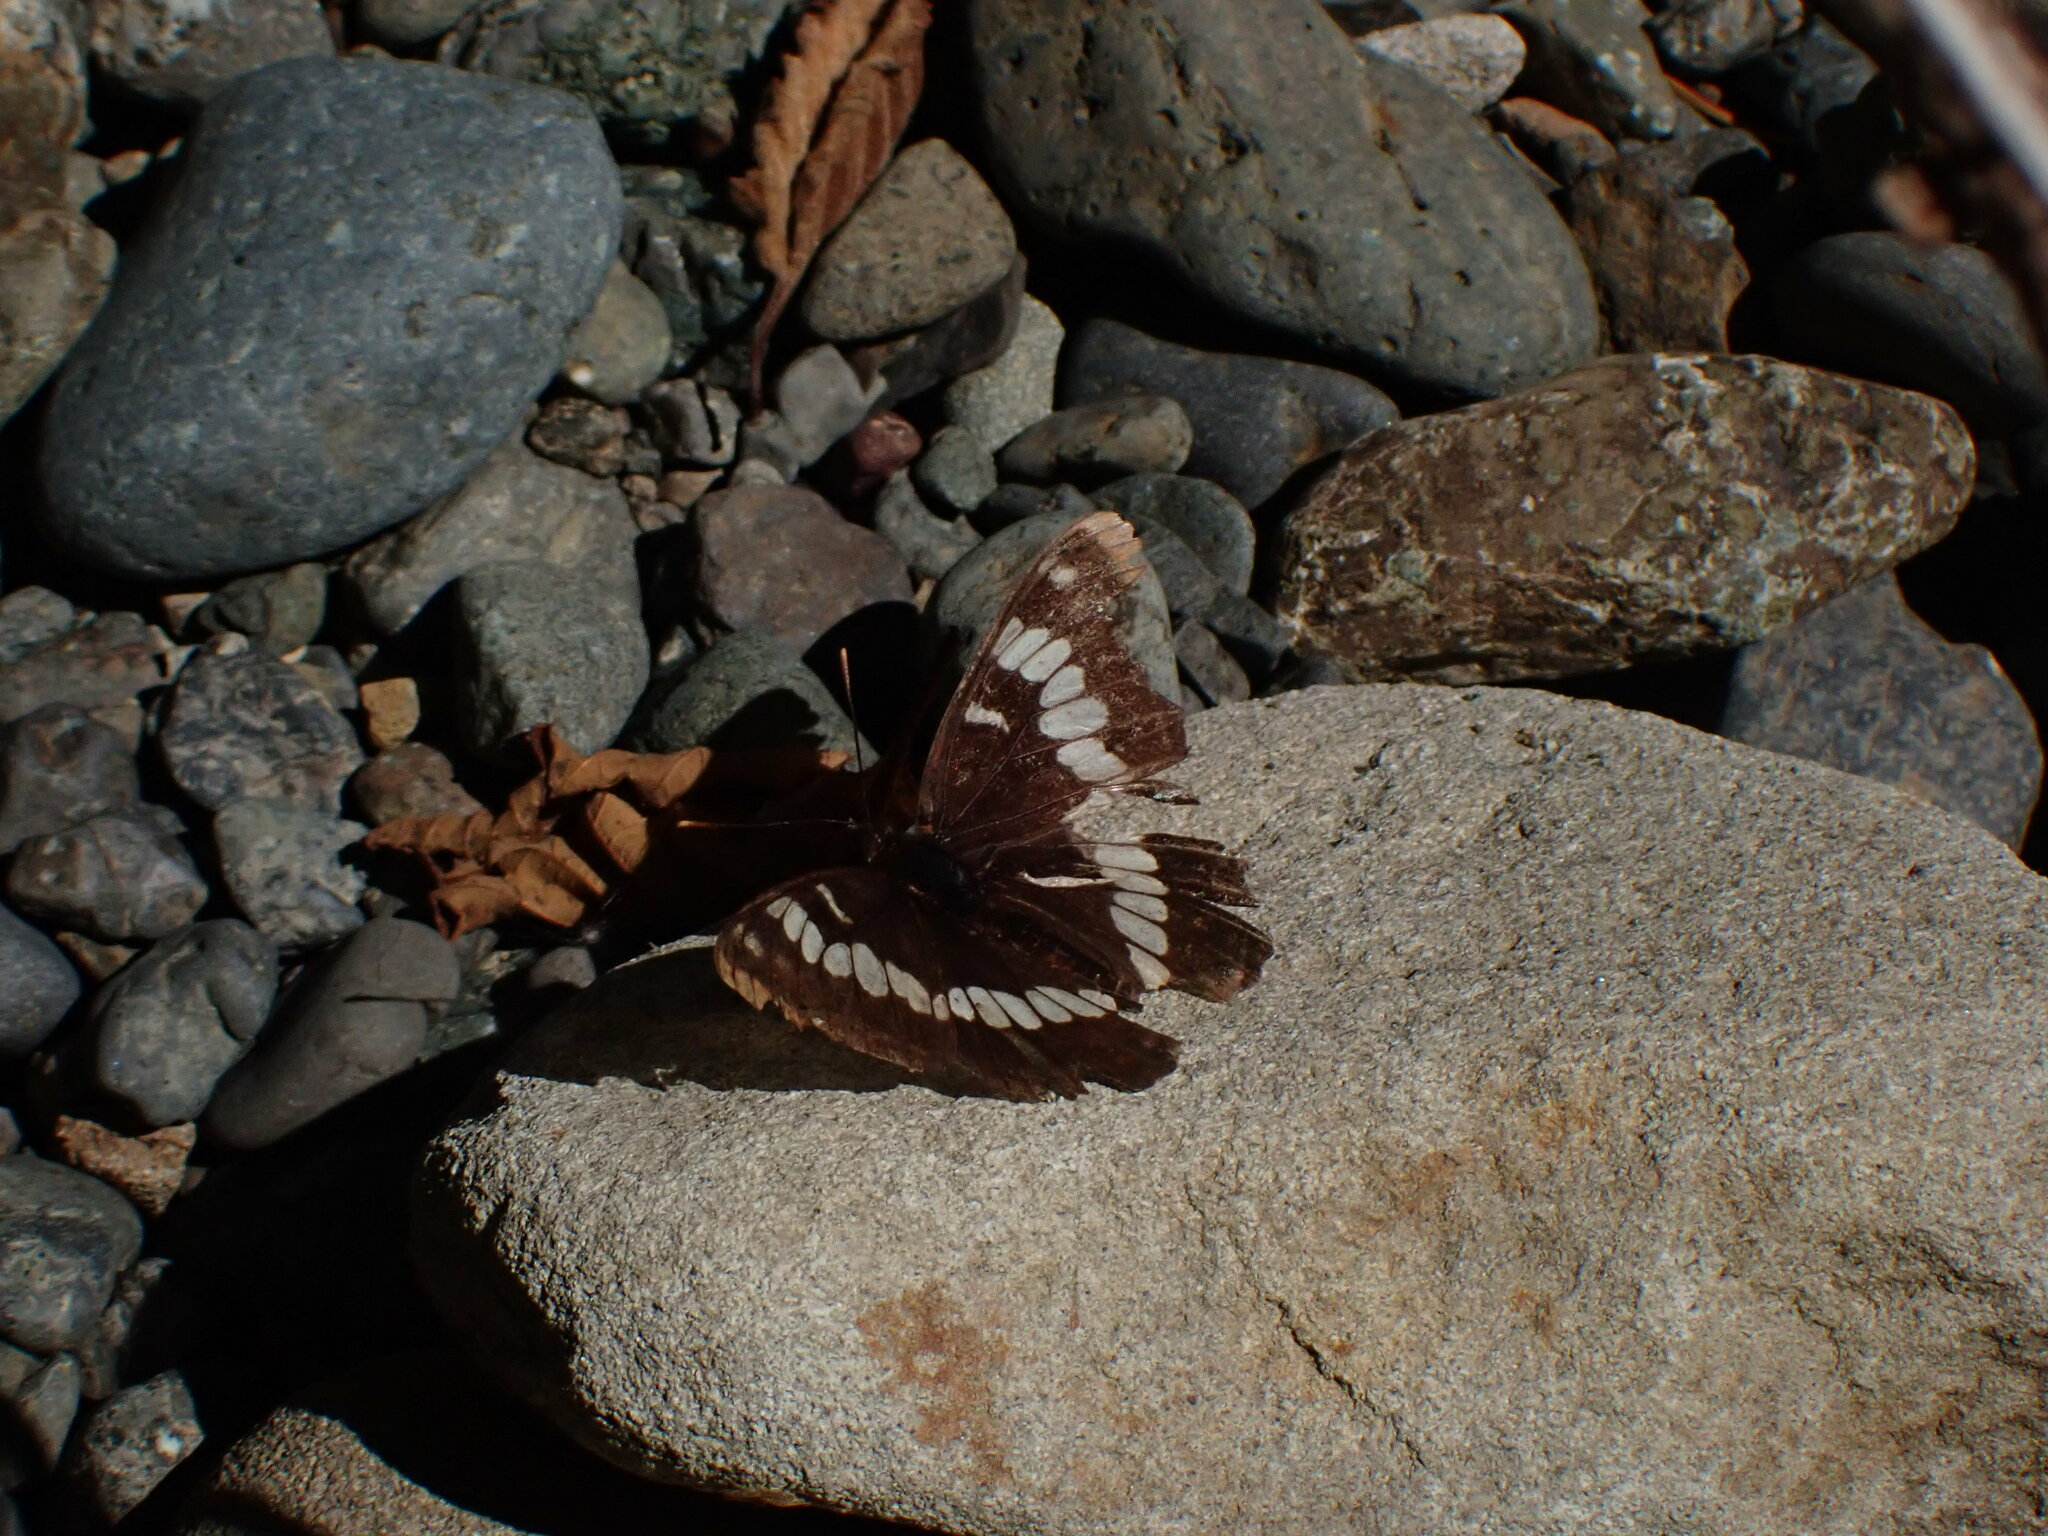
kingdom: Animalia
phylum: Arthropoda
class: Insecta
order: Lepidoptera
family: Nymphalidae
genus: Limenitis
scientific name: Limenitis lorquini
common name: Lorquin's admiral
